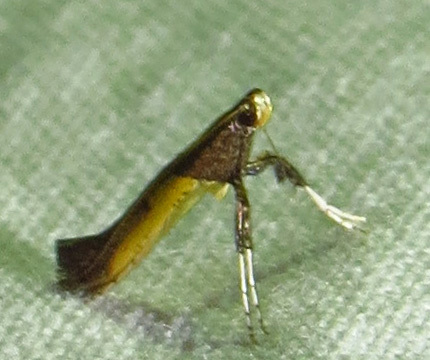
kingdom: Animalia
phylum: Arthropoda
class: Insecta
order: Lepidoptera
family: Gracillariidae
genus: Caloptilia
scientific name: Caloptilia azaleella
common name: Azalea leafminer
